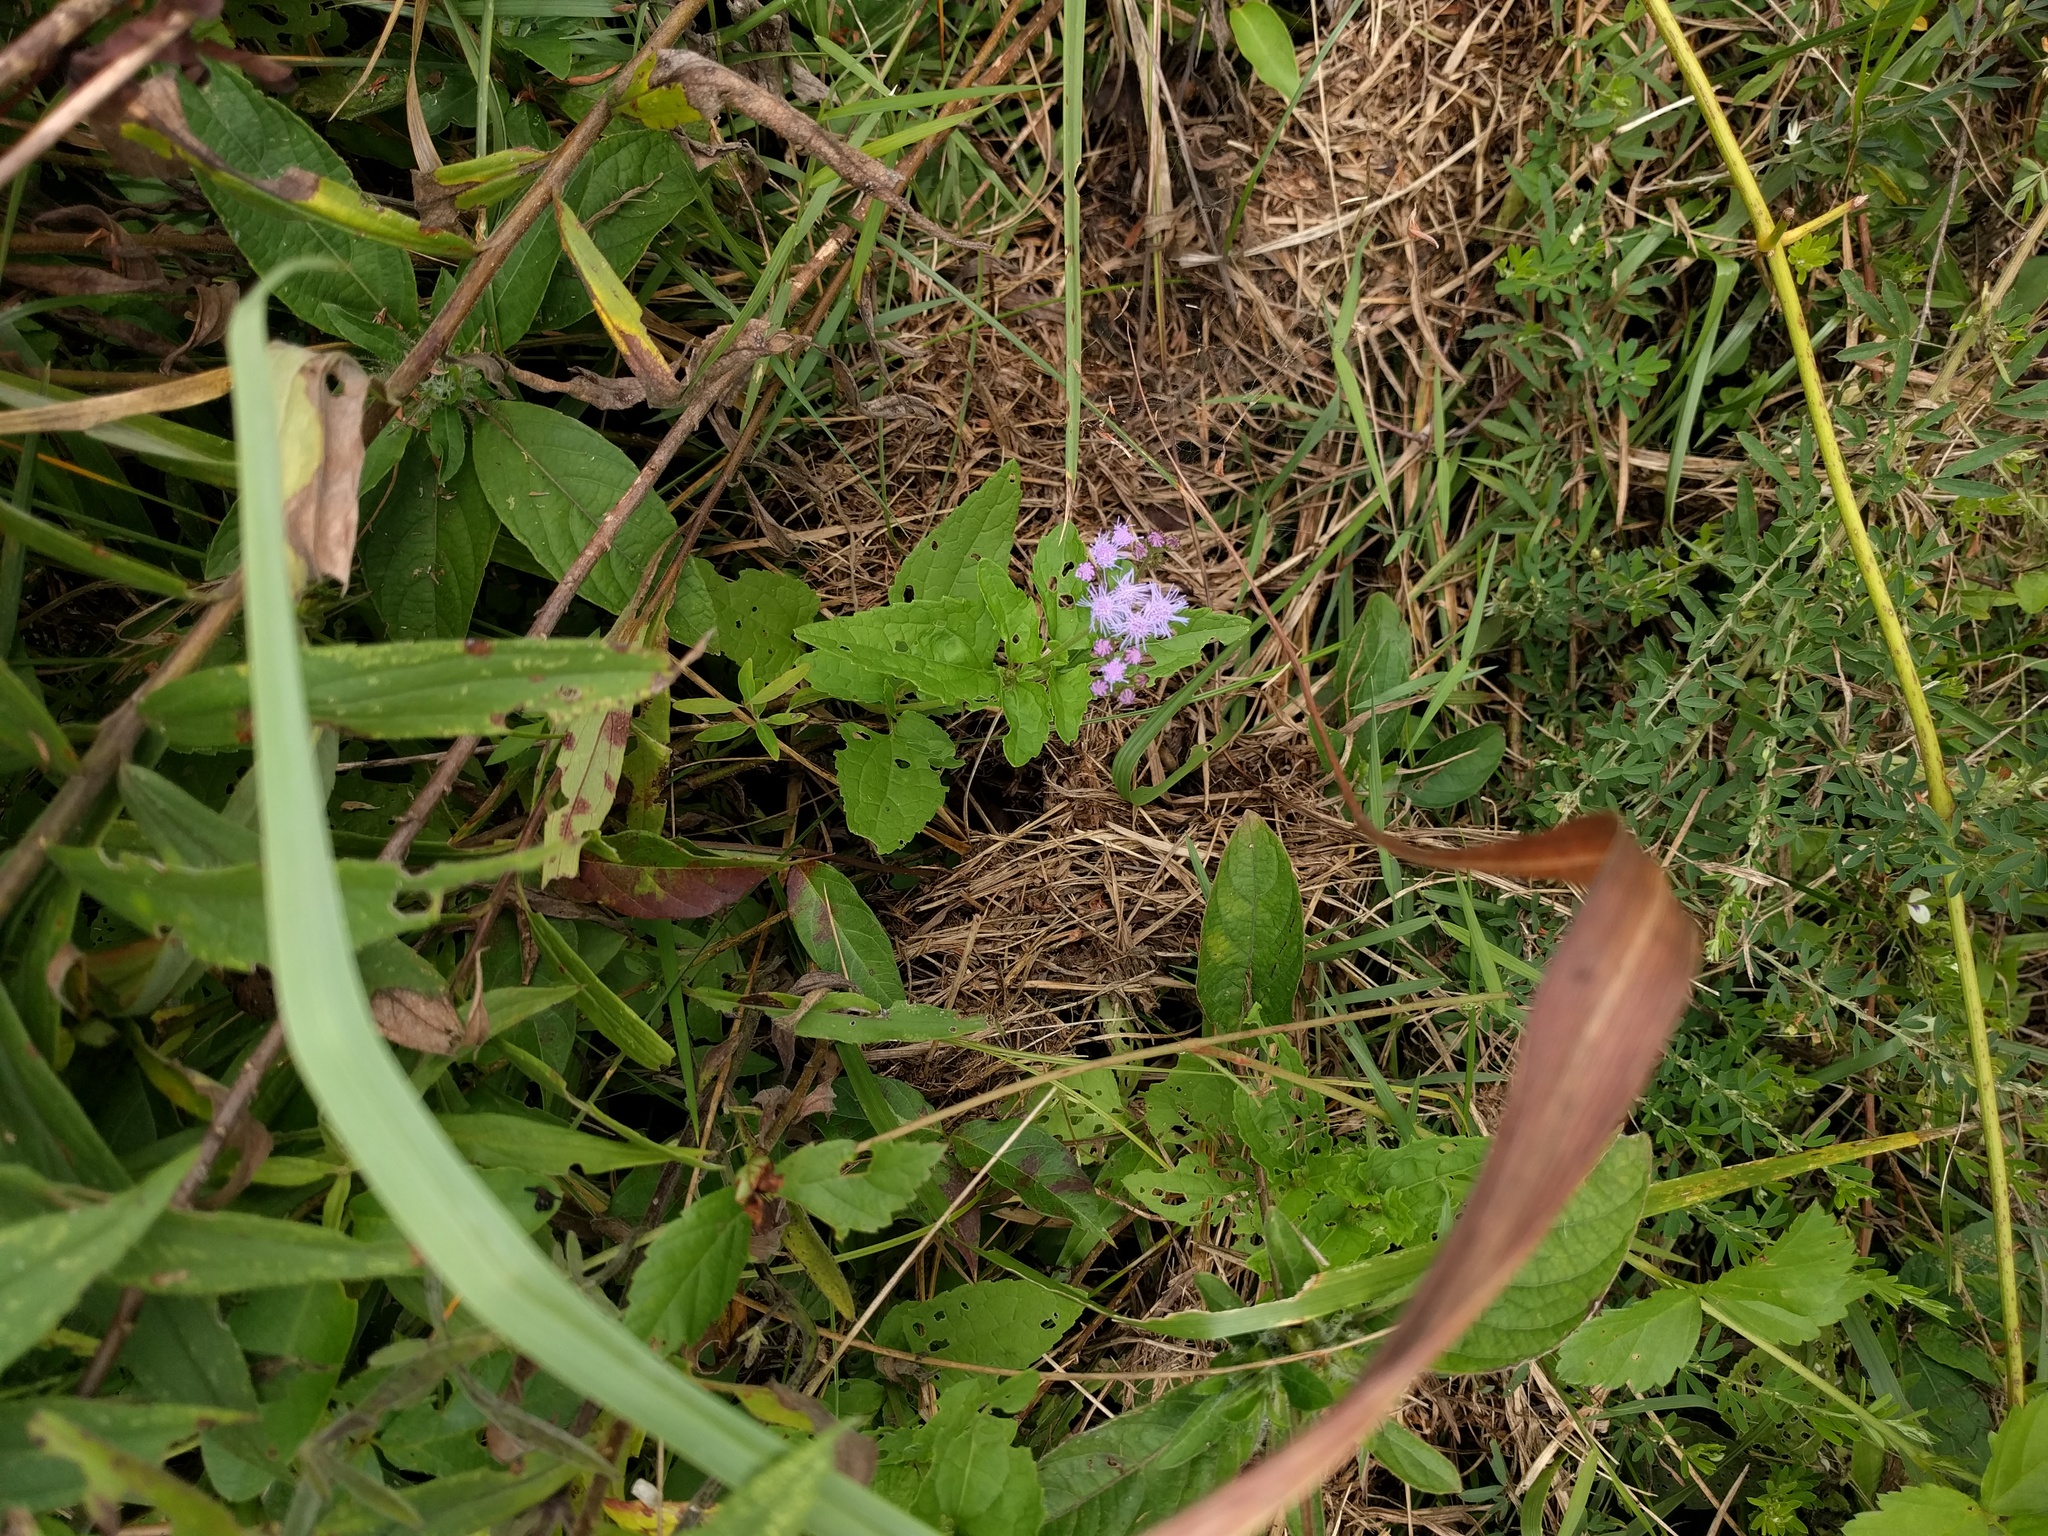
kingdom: Plantae
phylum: Tracheophyta
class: Magnoliopsida
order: Asterales
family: Asteraceae
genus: Conoclinium
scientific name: Conoclinium coelestinum
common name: Blue mistflower
